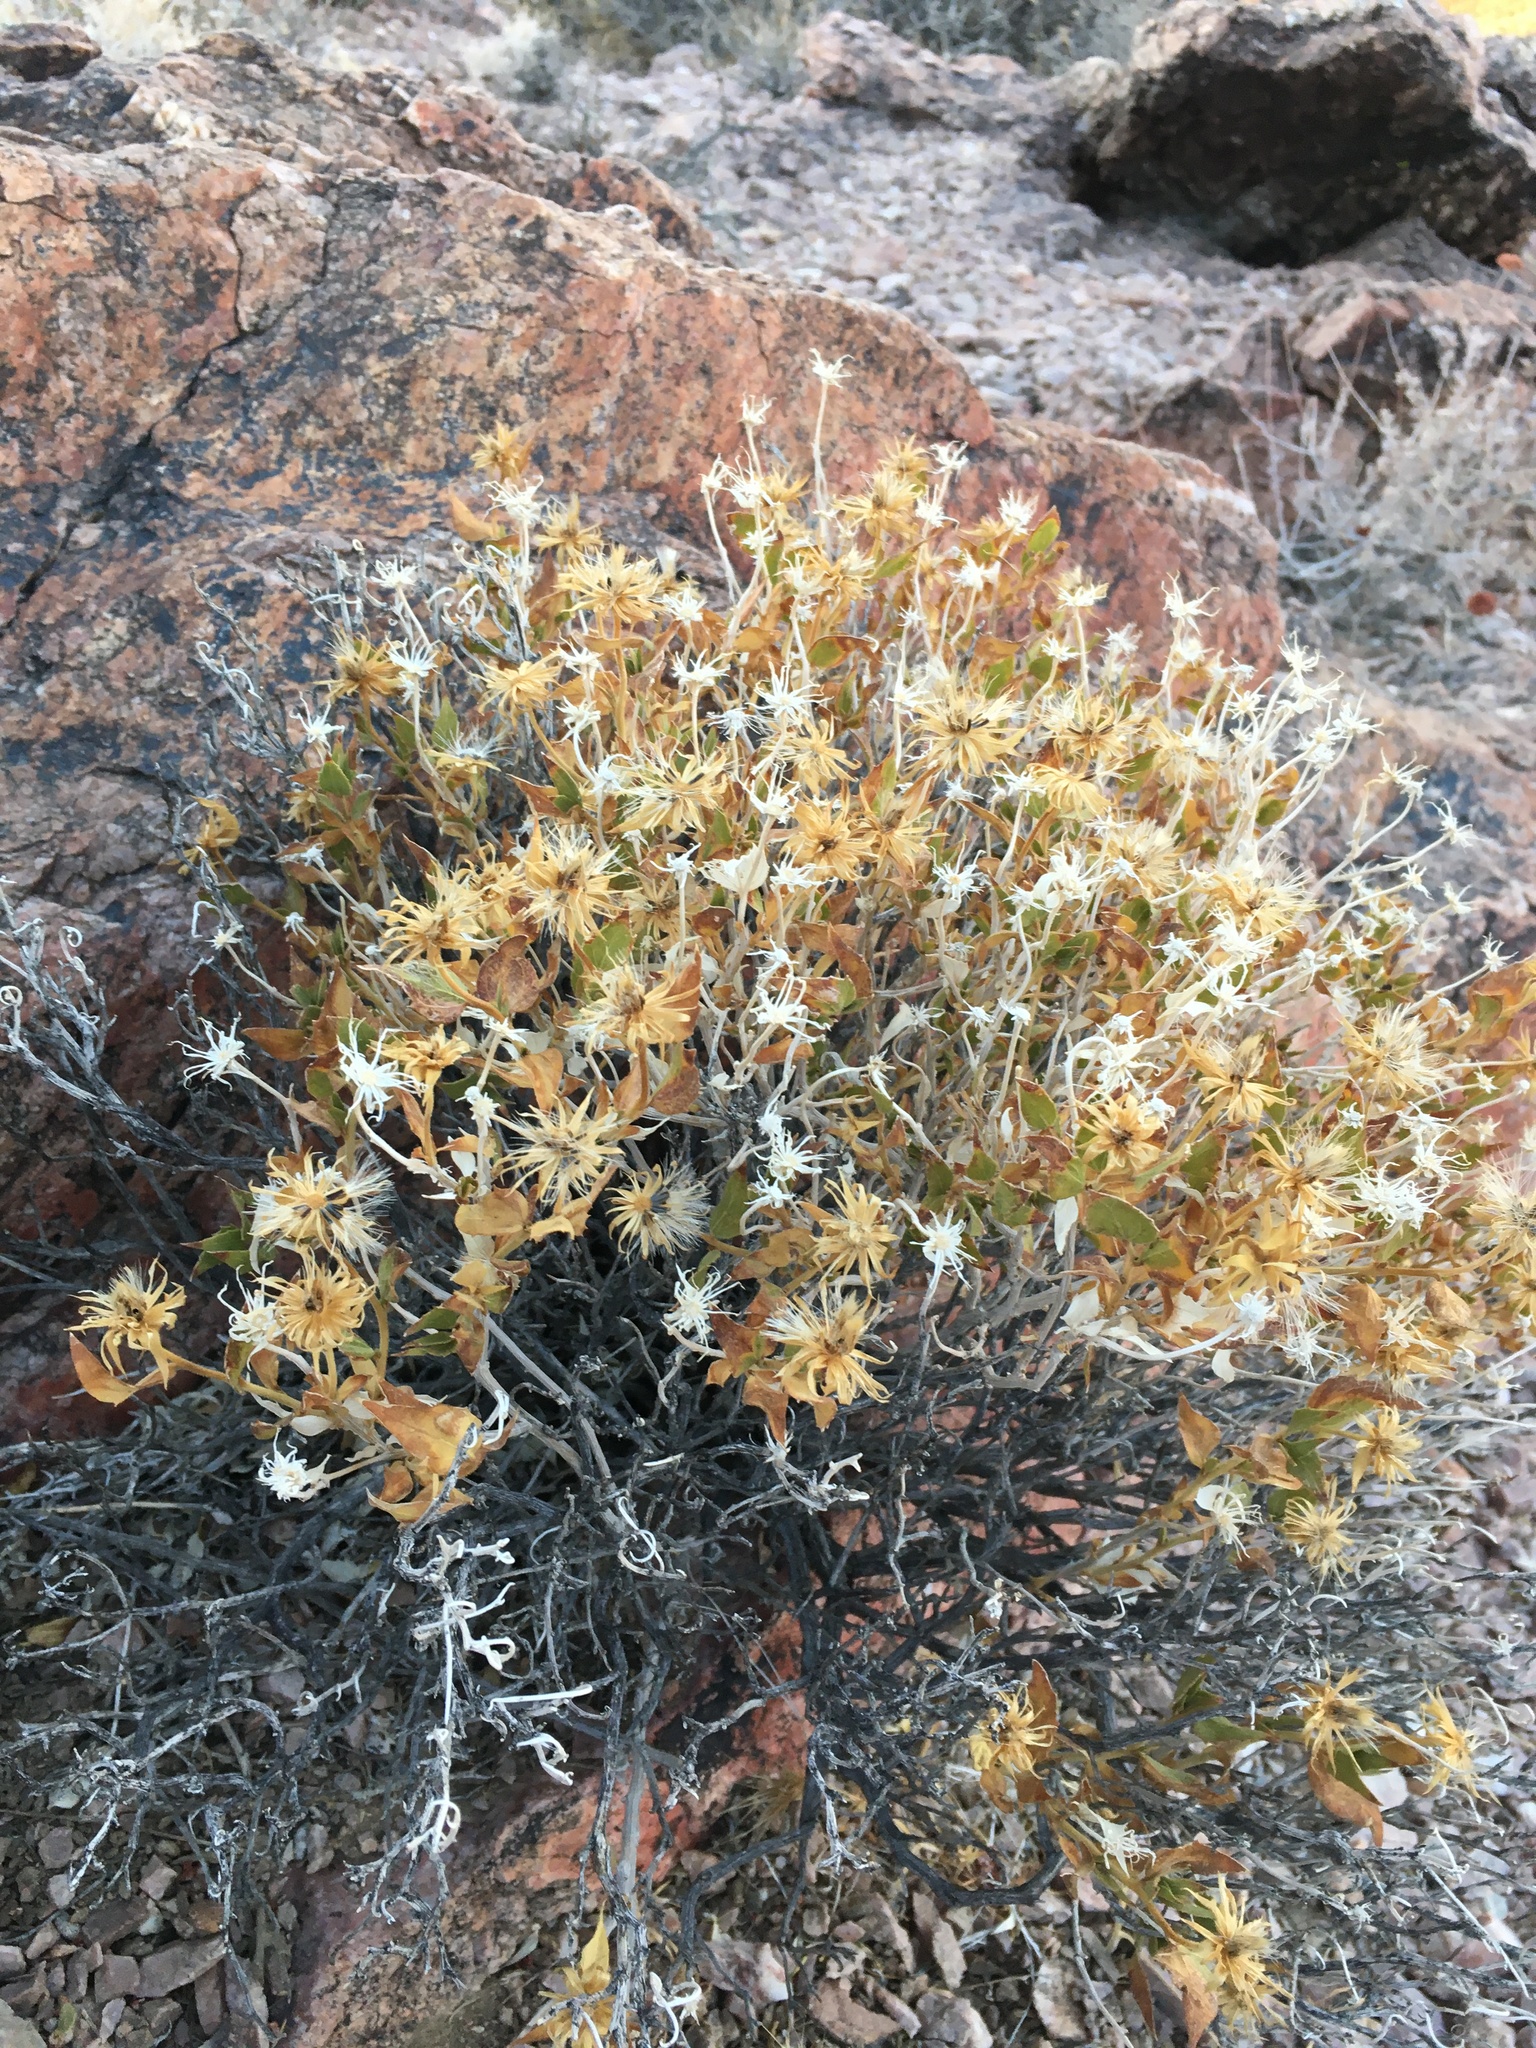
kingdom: Plantae
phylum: Tracheophyta
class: Magnoliopsida
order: Asterales
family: Asteraceae
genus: Brickellia
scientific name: Brickellia atractyloides
